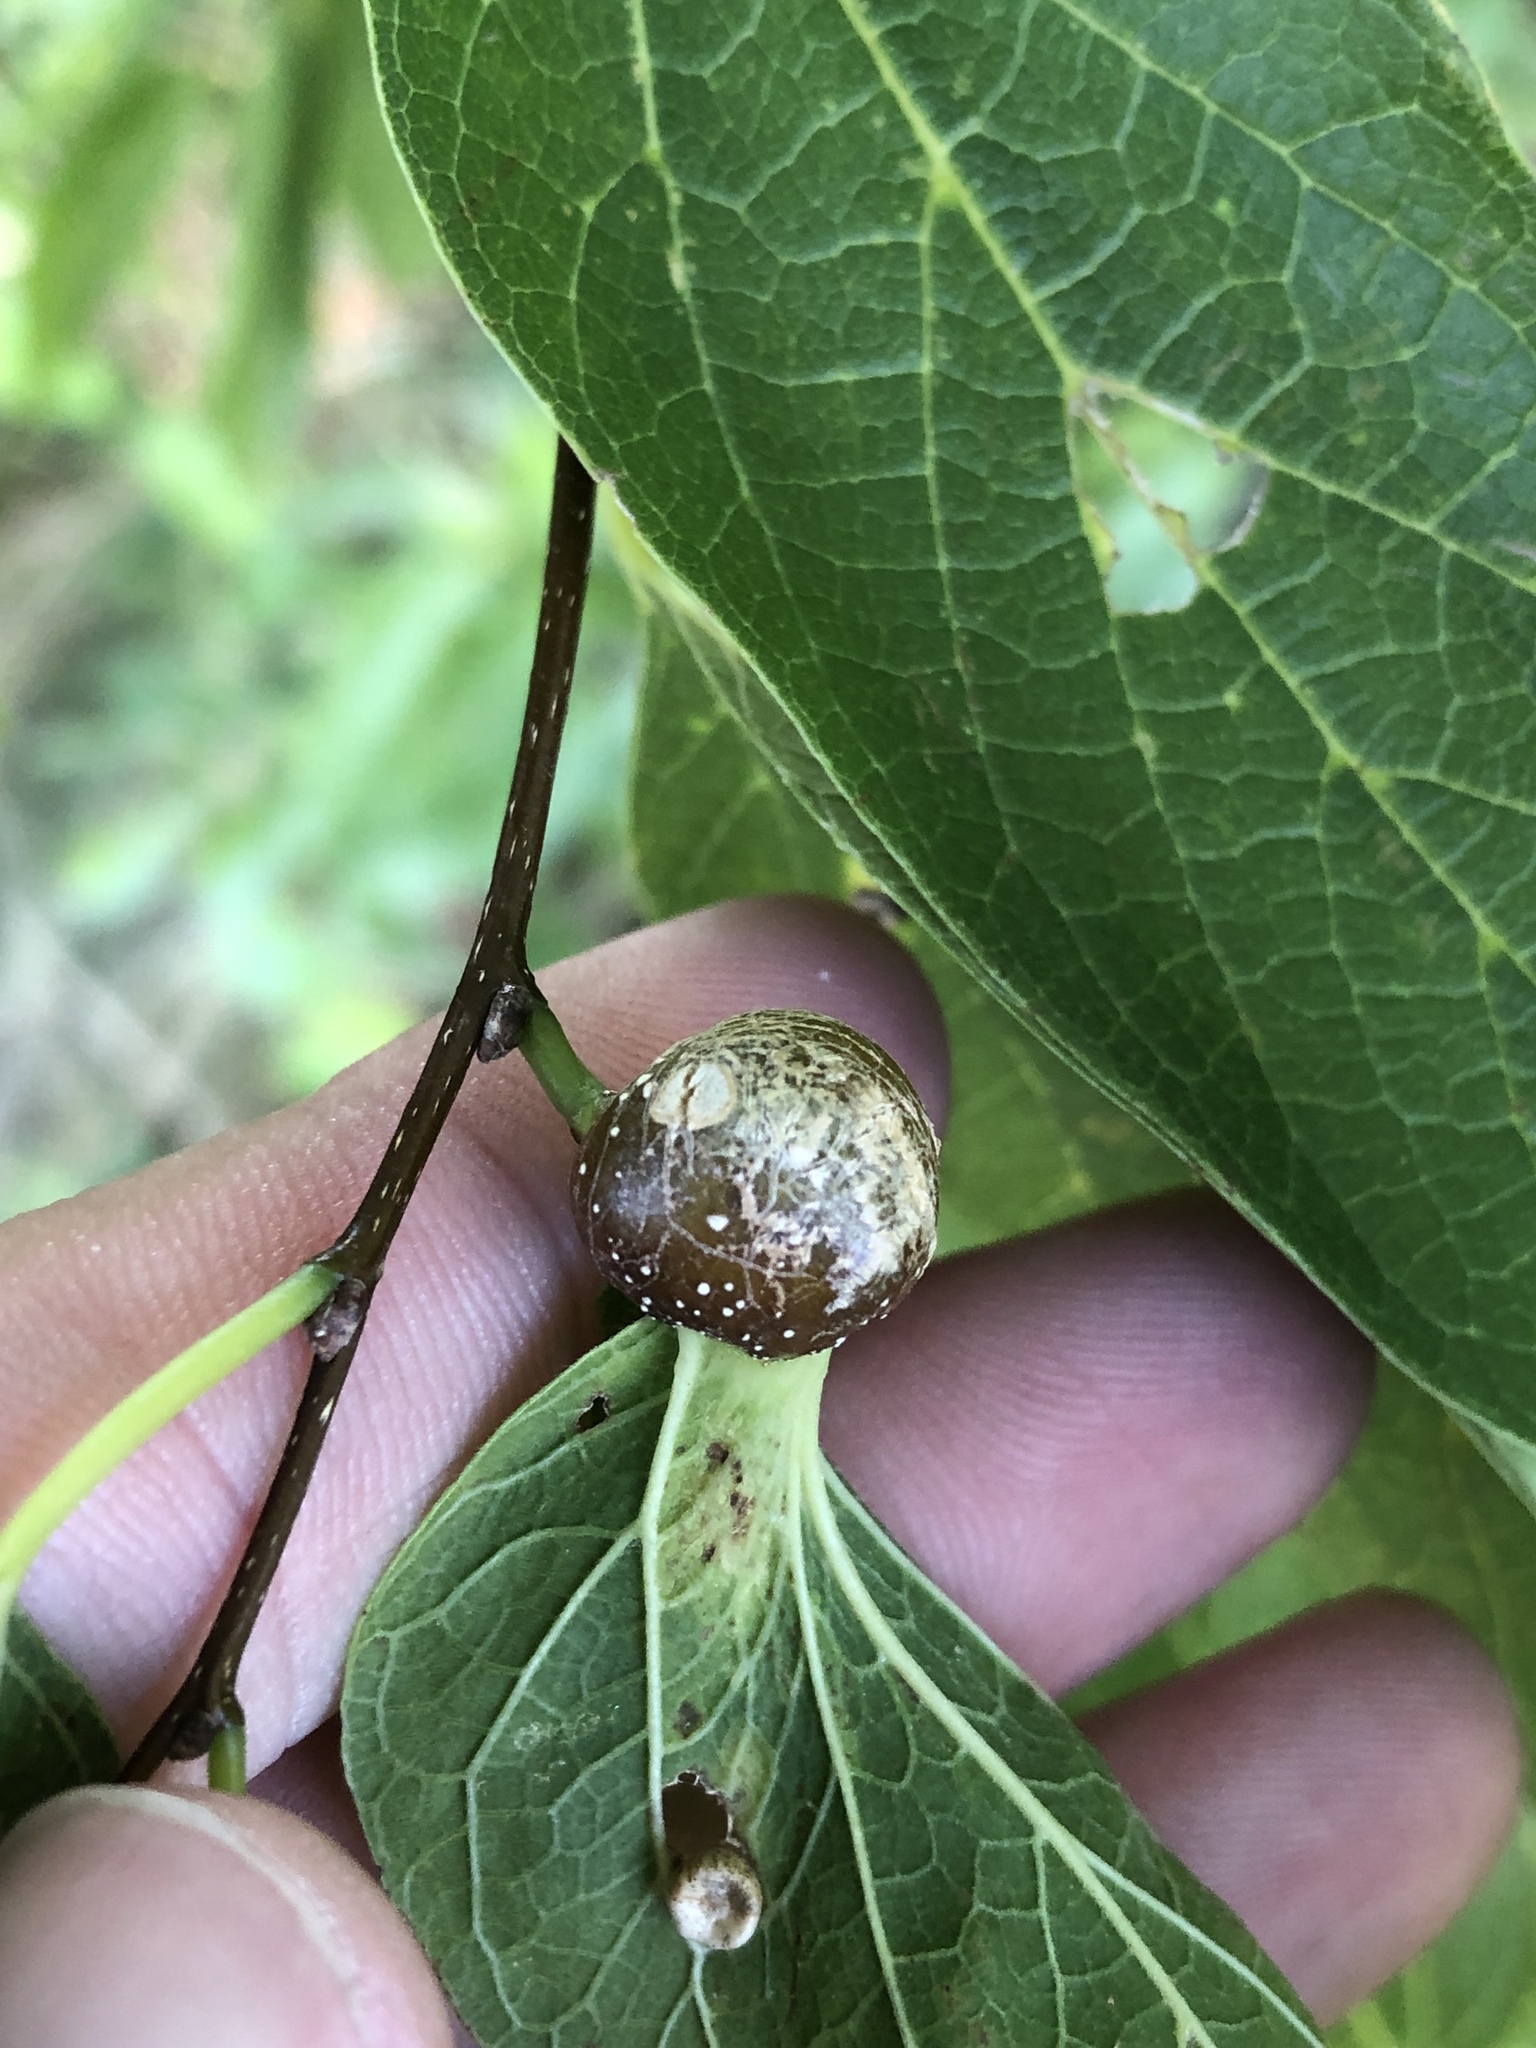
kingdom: Animalia
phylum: Arthropoda
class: Insecta
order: Hemiptera
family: Aphalaridae
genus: Pachypsylla
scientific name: Pachypsylla venusta
